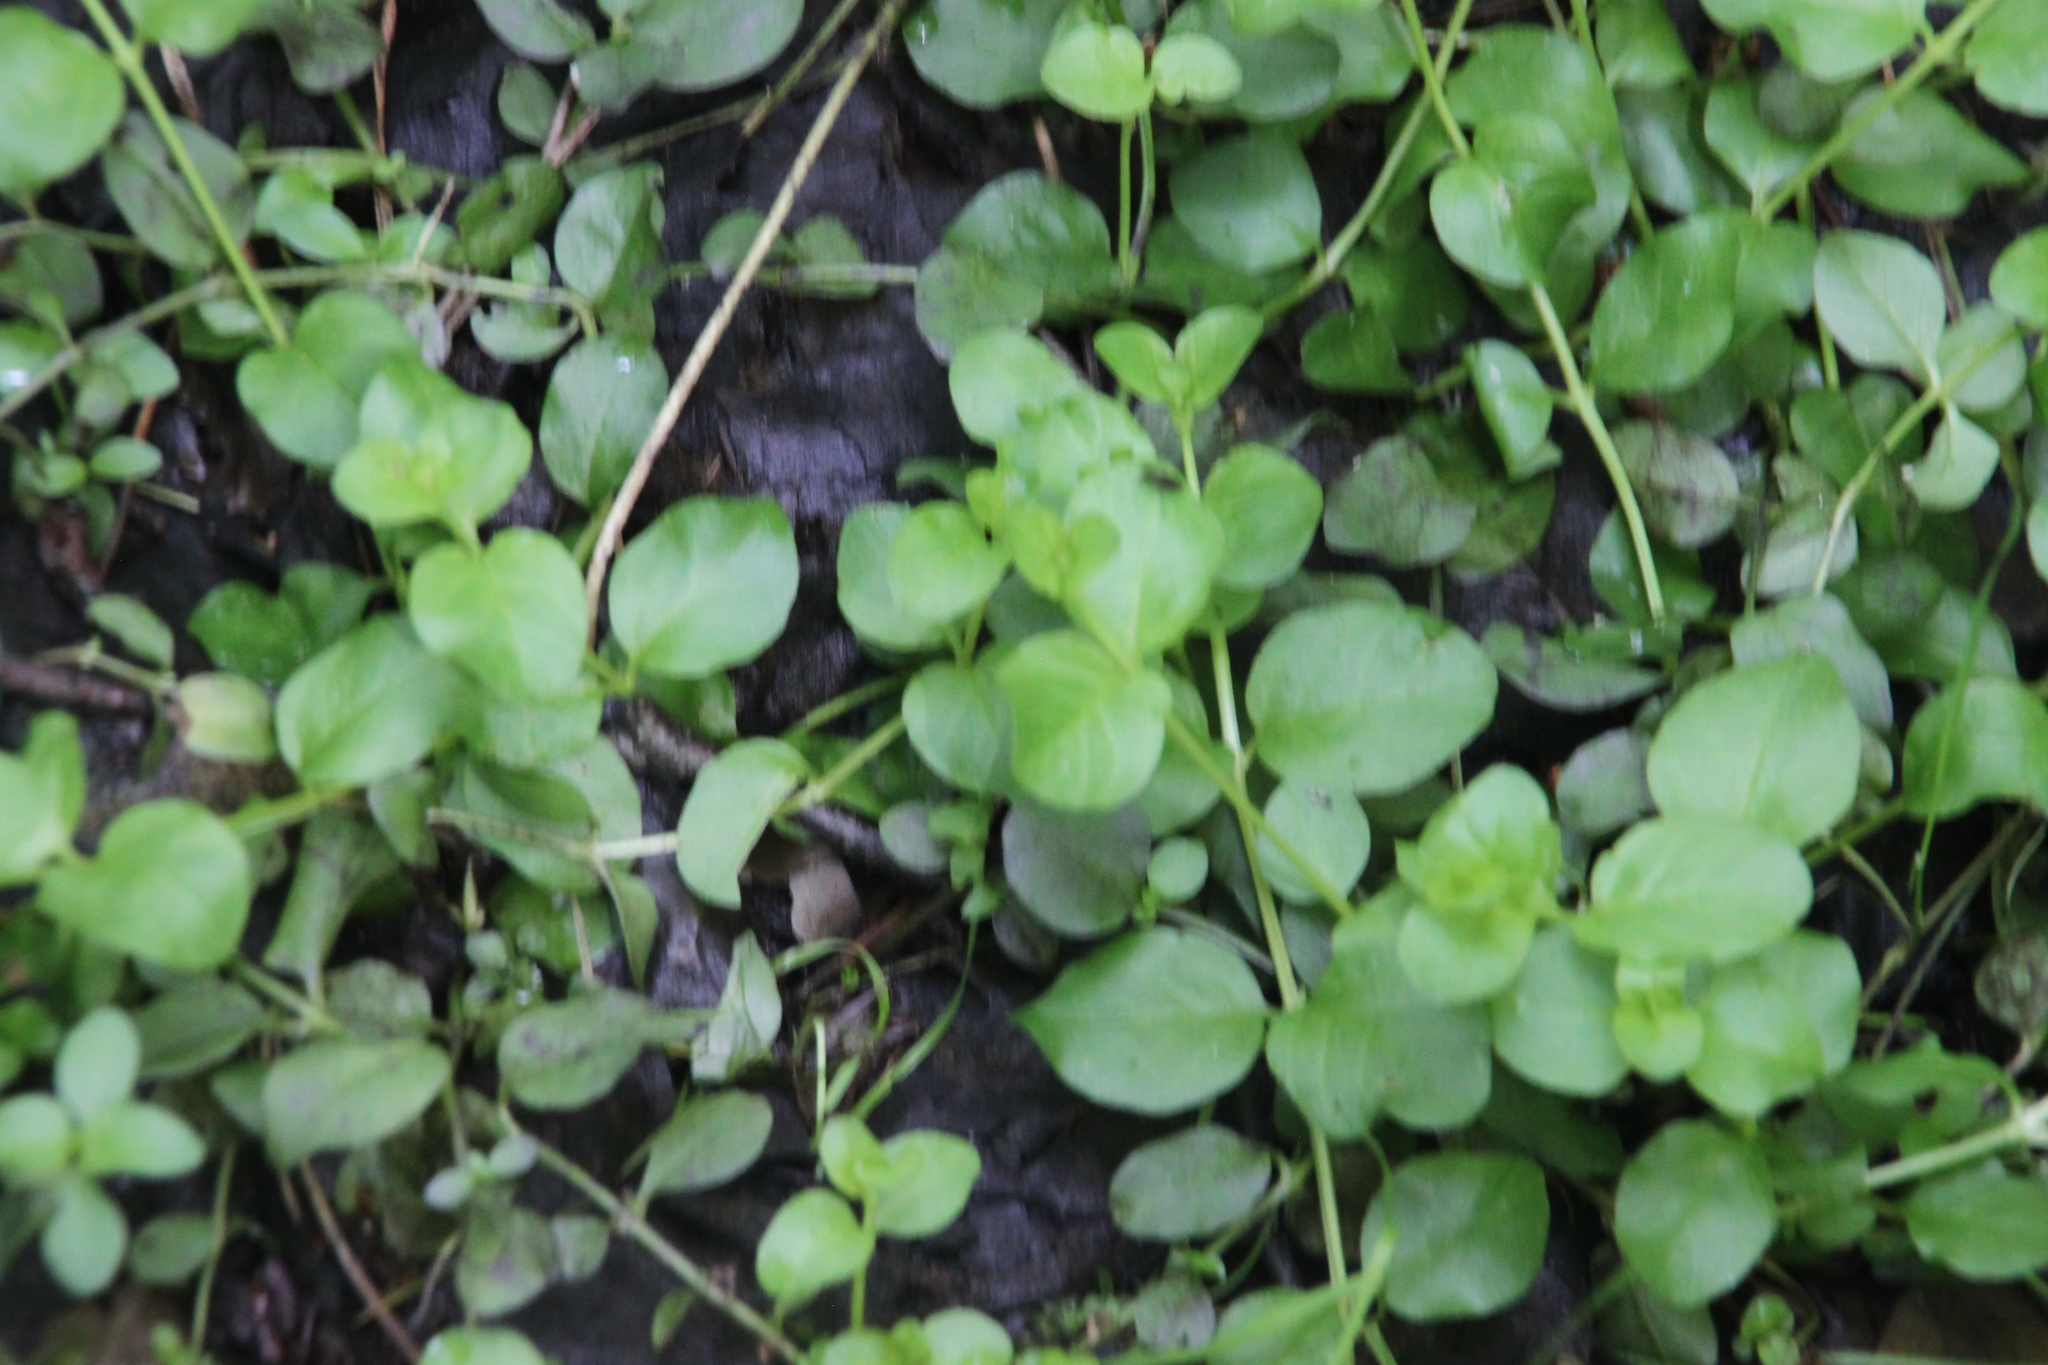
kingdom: Plantae
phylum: Tracheophyta
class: Magnoliopsida
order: Ericales
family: Primulaceae
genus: Lysimachia
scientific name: Lysimachia nummularia
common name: Moneywort
